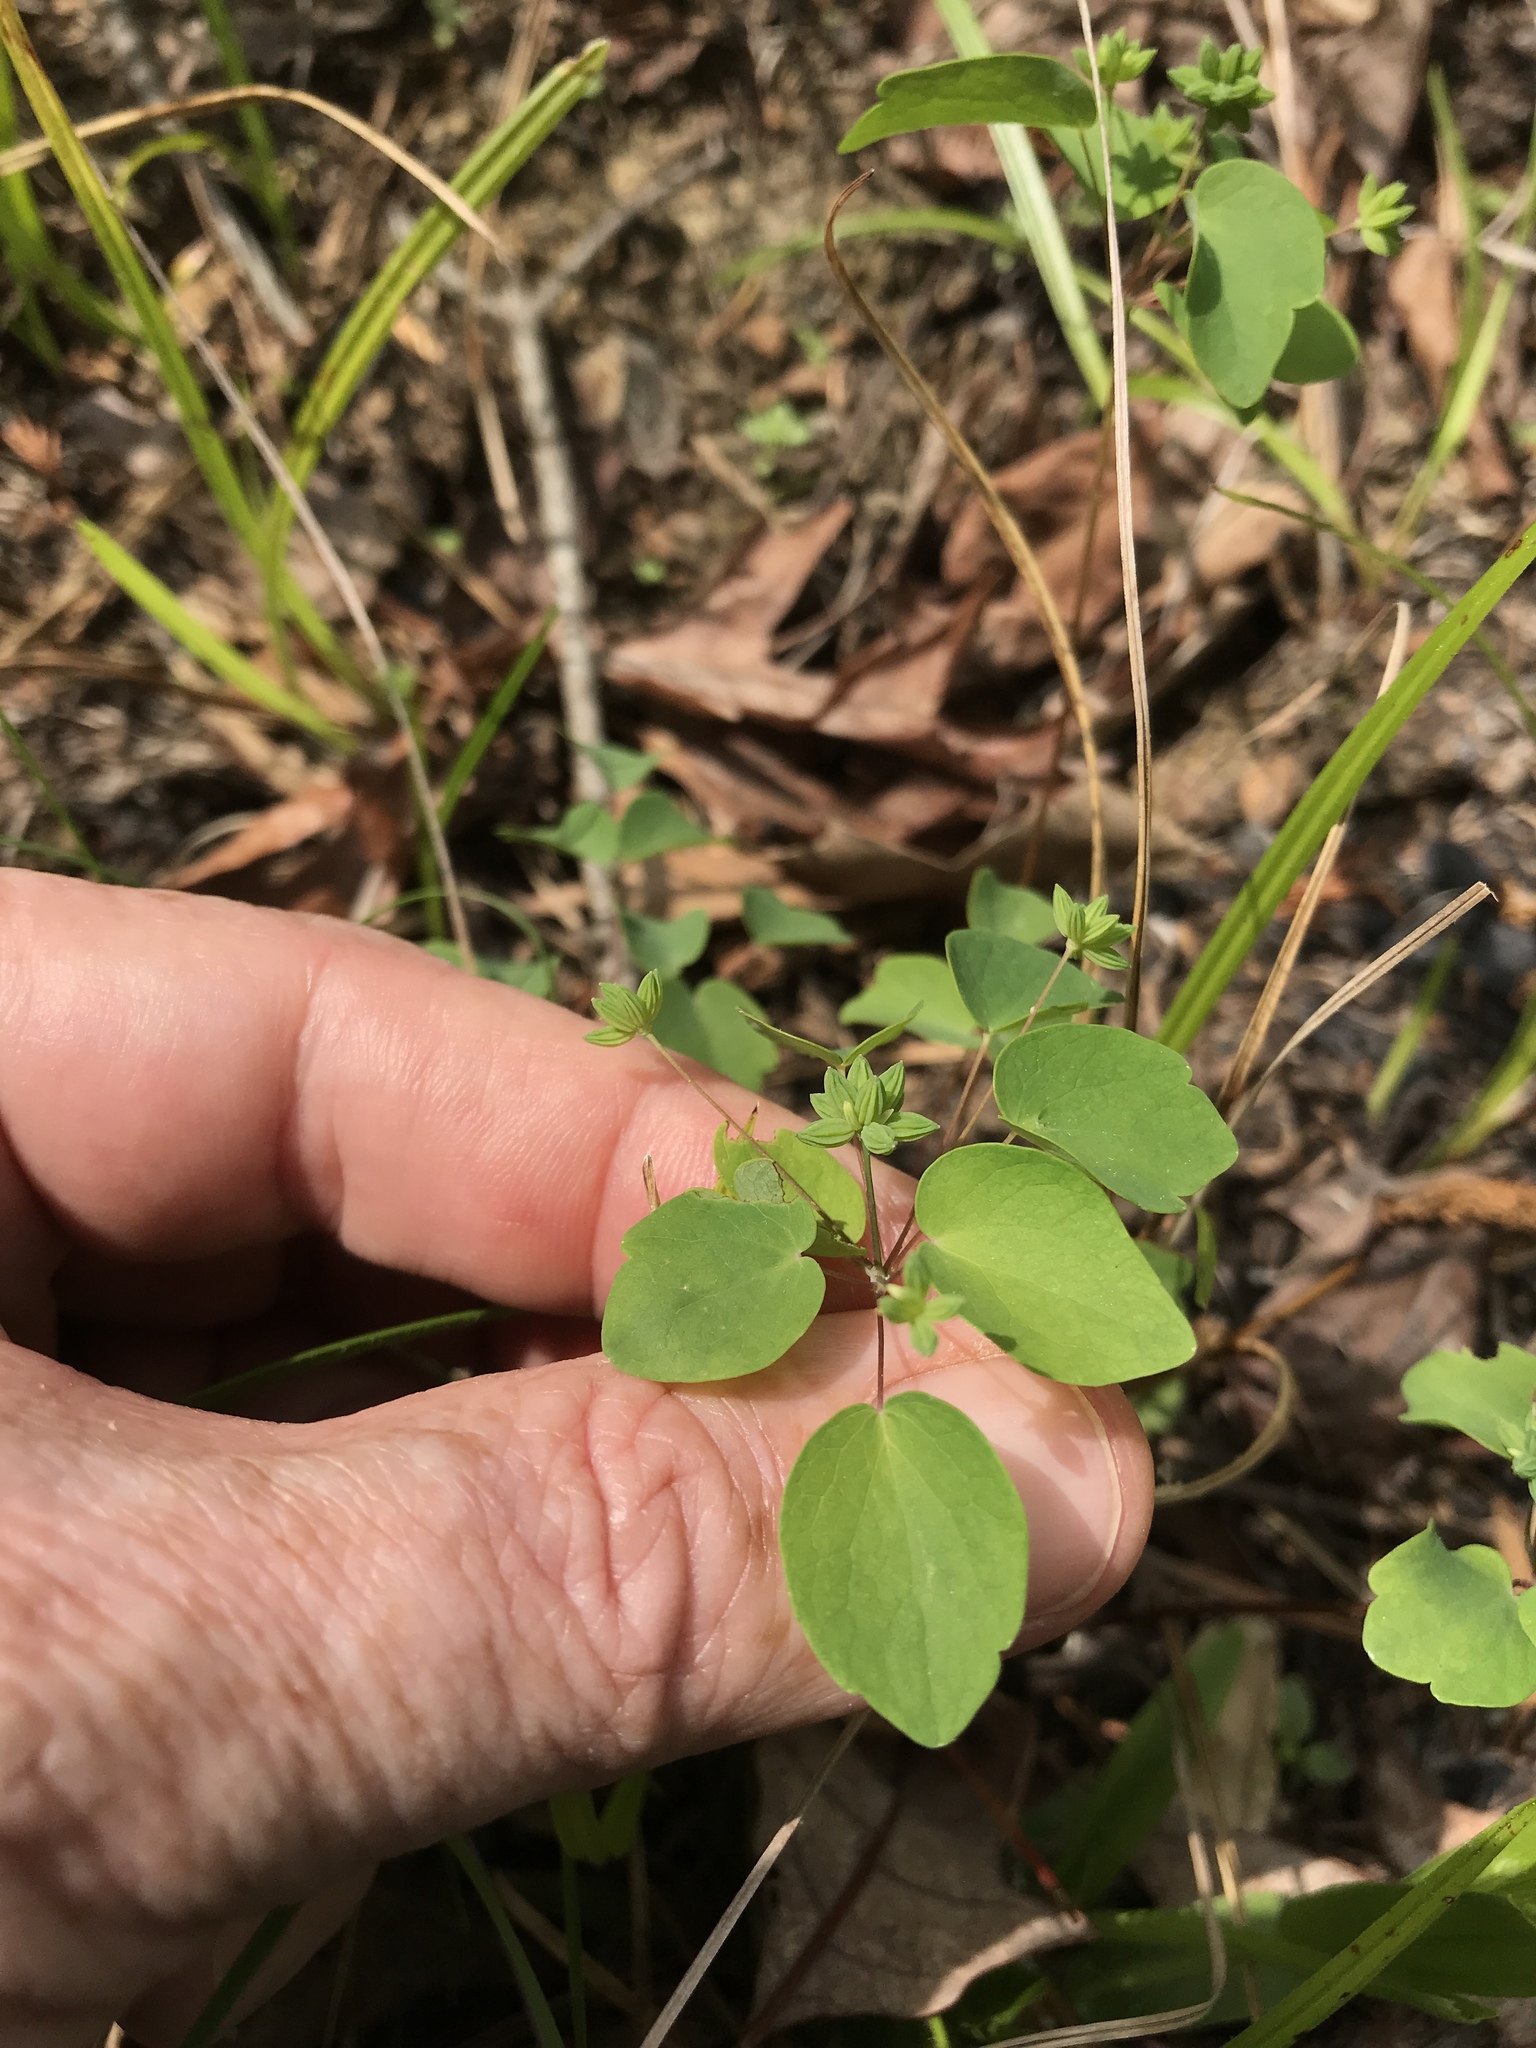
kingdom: Plantae
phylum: Tracheophyta
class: Magnoliopsida
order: Ranunculales
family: Ranunculaceae
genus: Thalictrum
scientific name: Thalictrum thalictroides
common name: Rue-anemone
